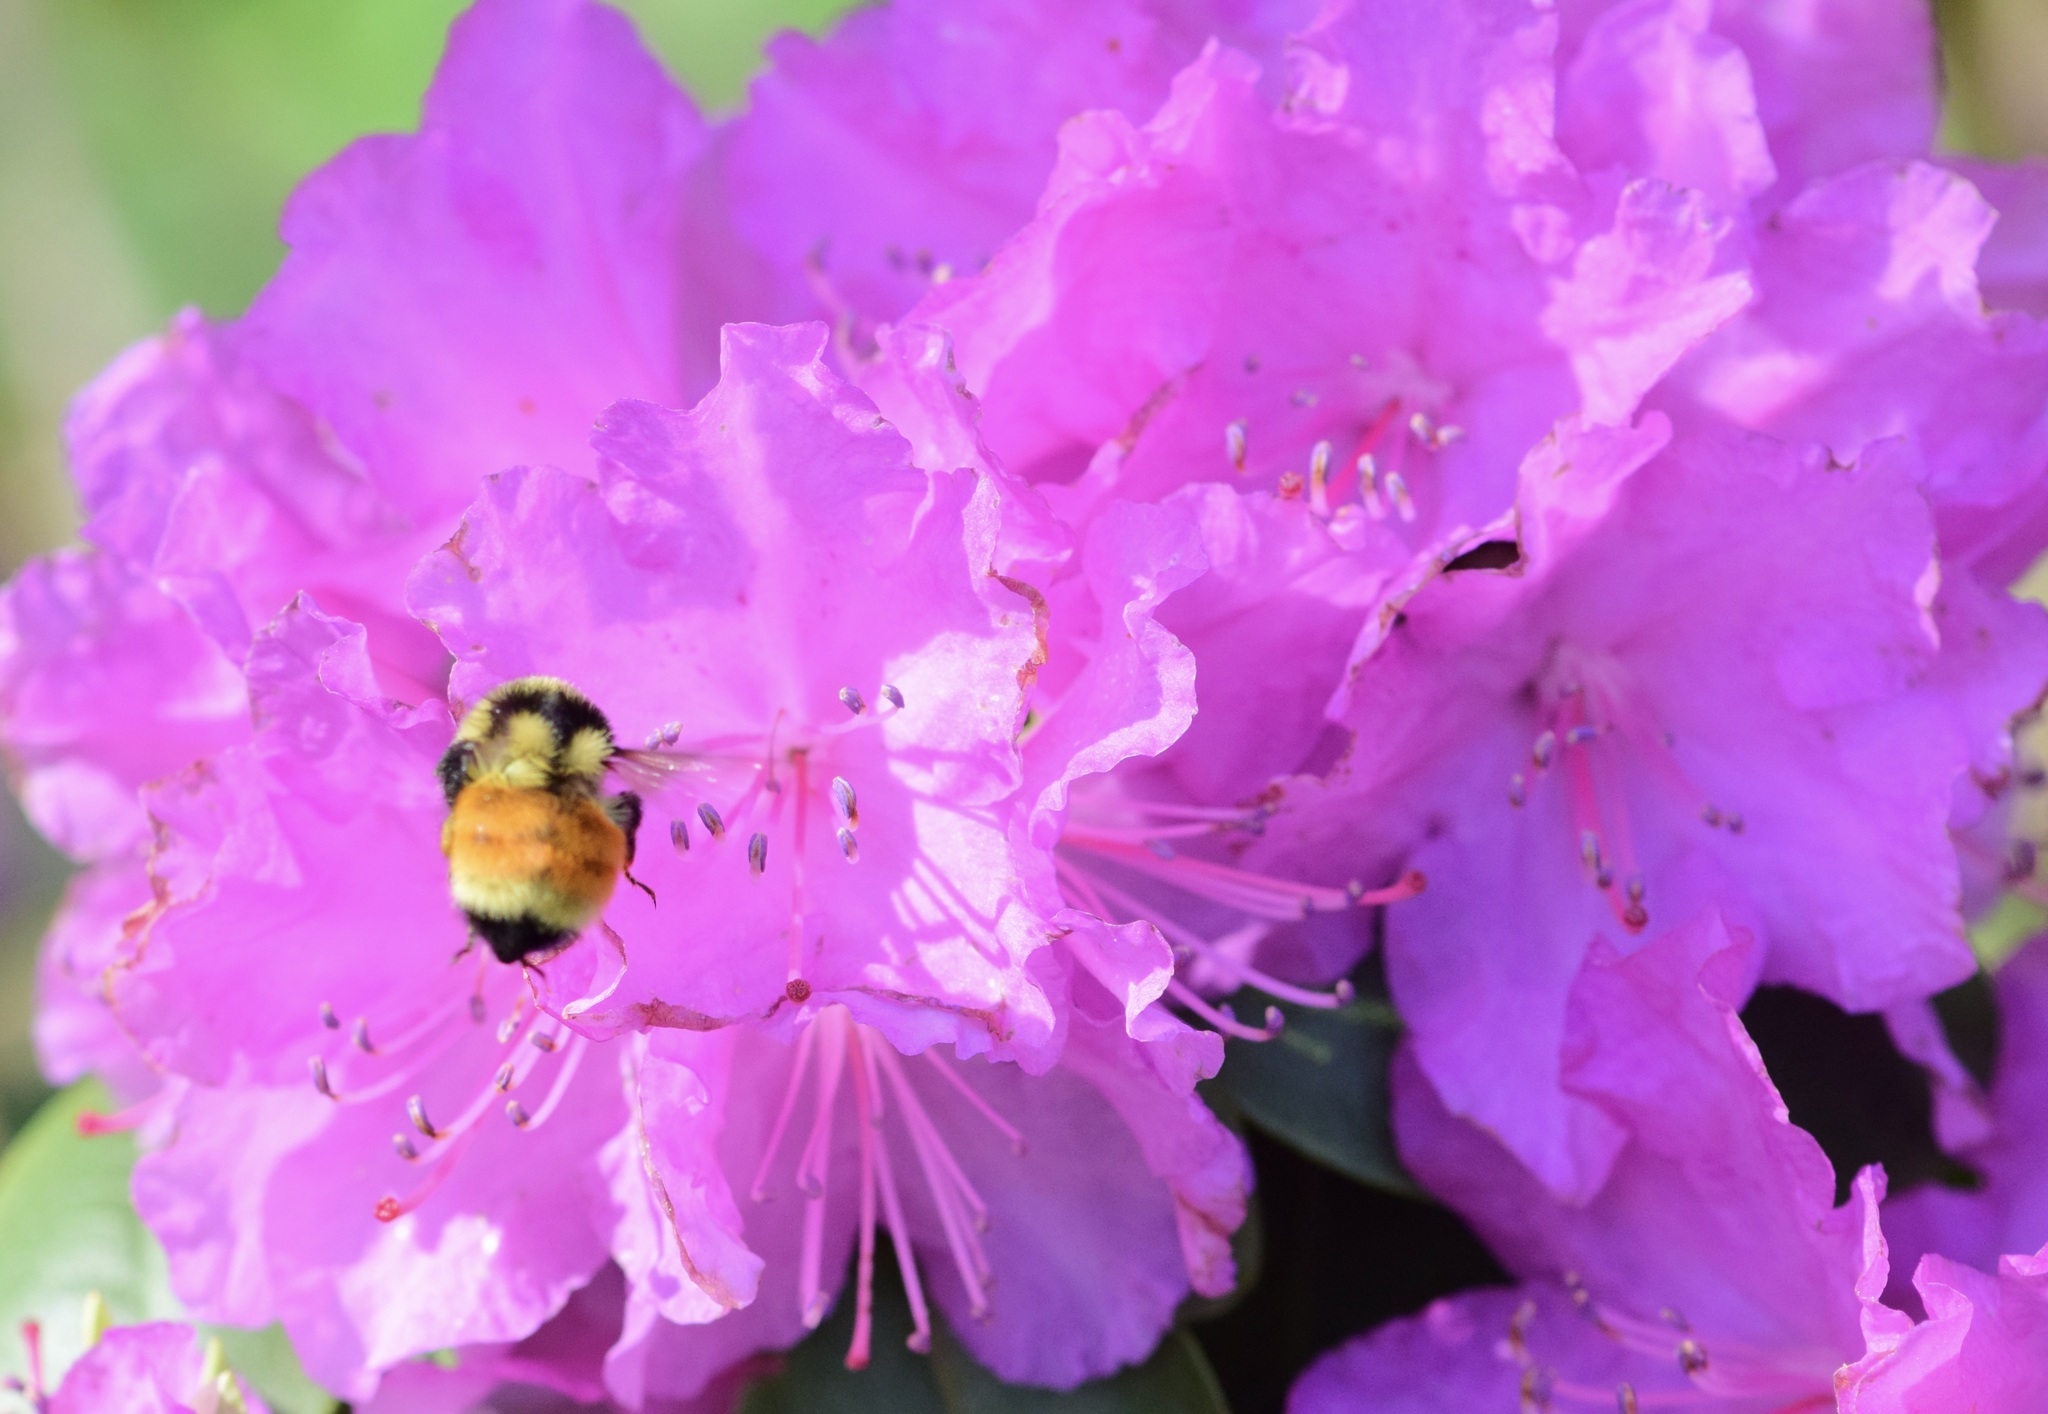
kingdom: Animalia
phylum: Arthropoda
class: Insecta
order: Hymenoptera
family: Apidae
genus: Bombus
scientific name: Bombus ternarius
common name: Tri-colored bumble bee
